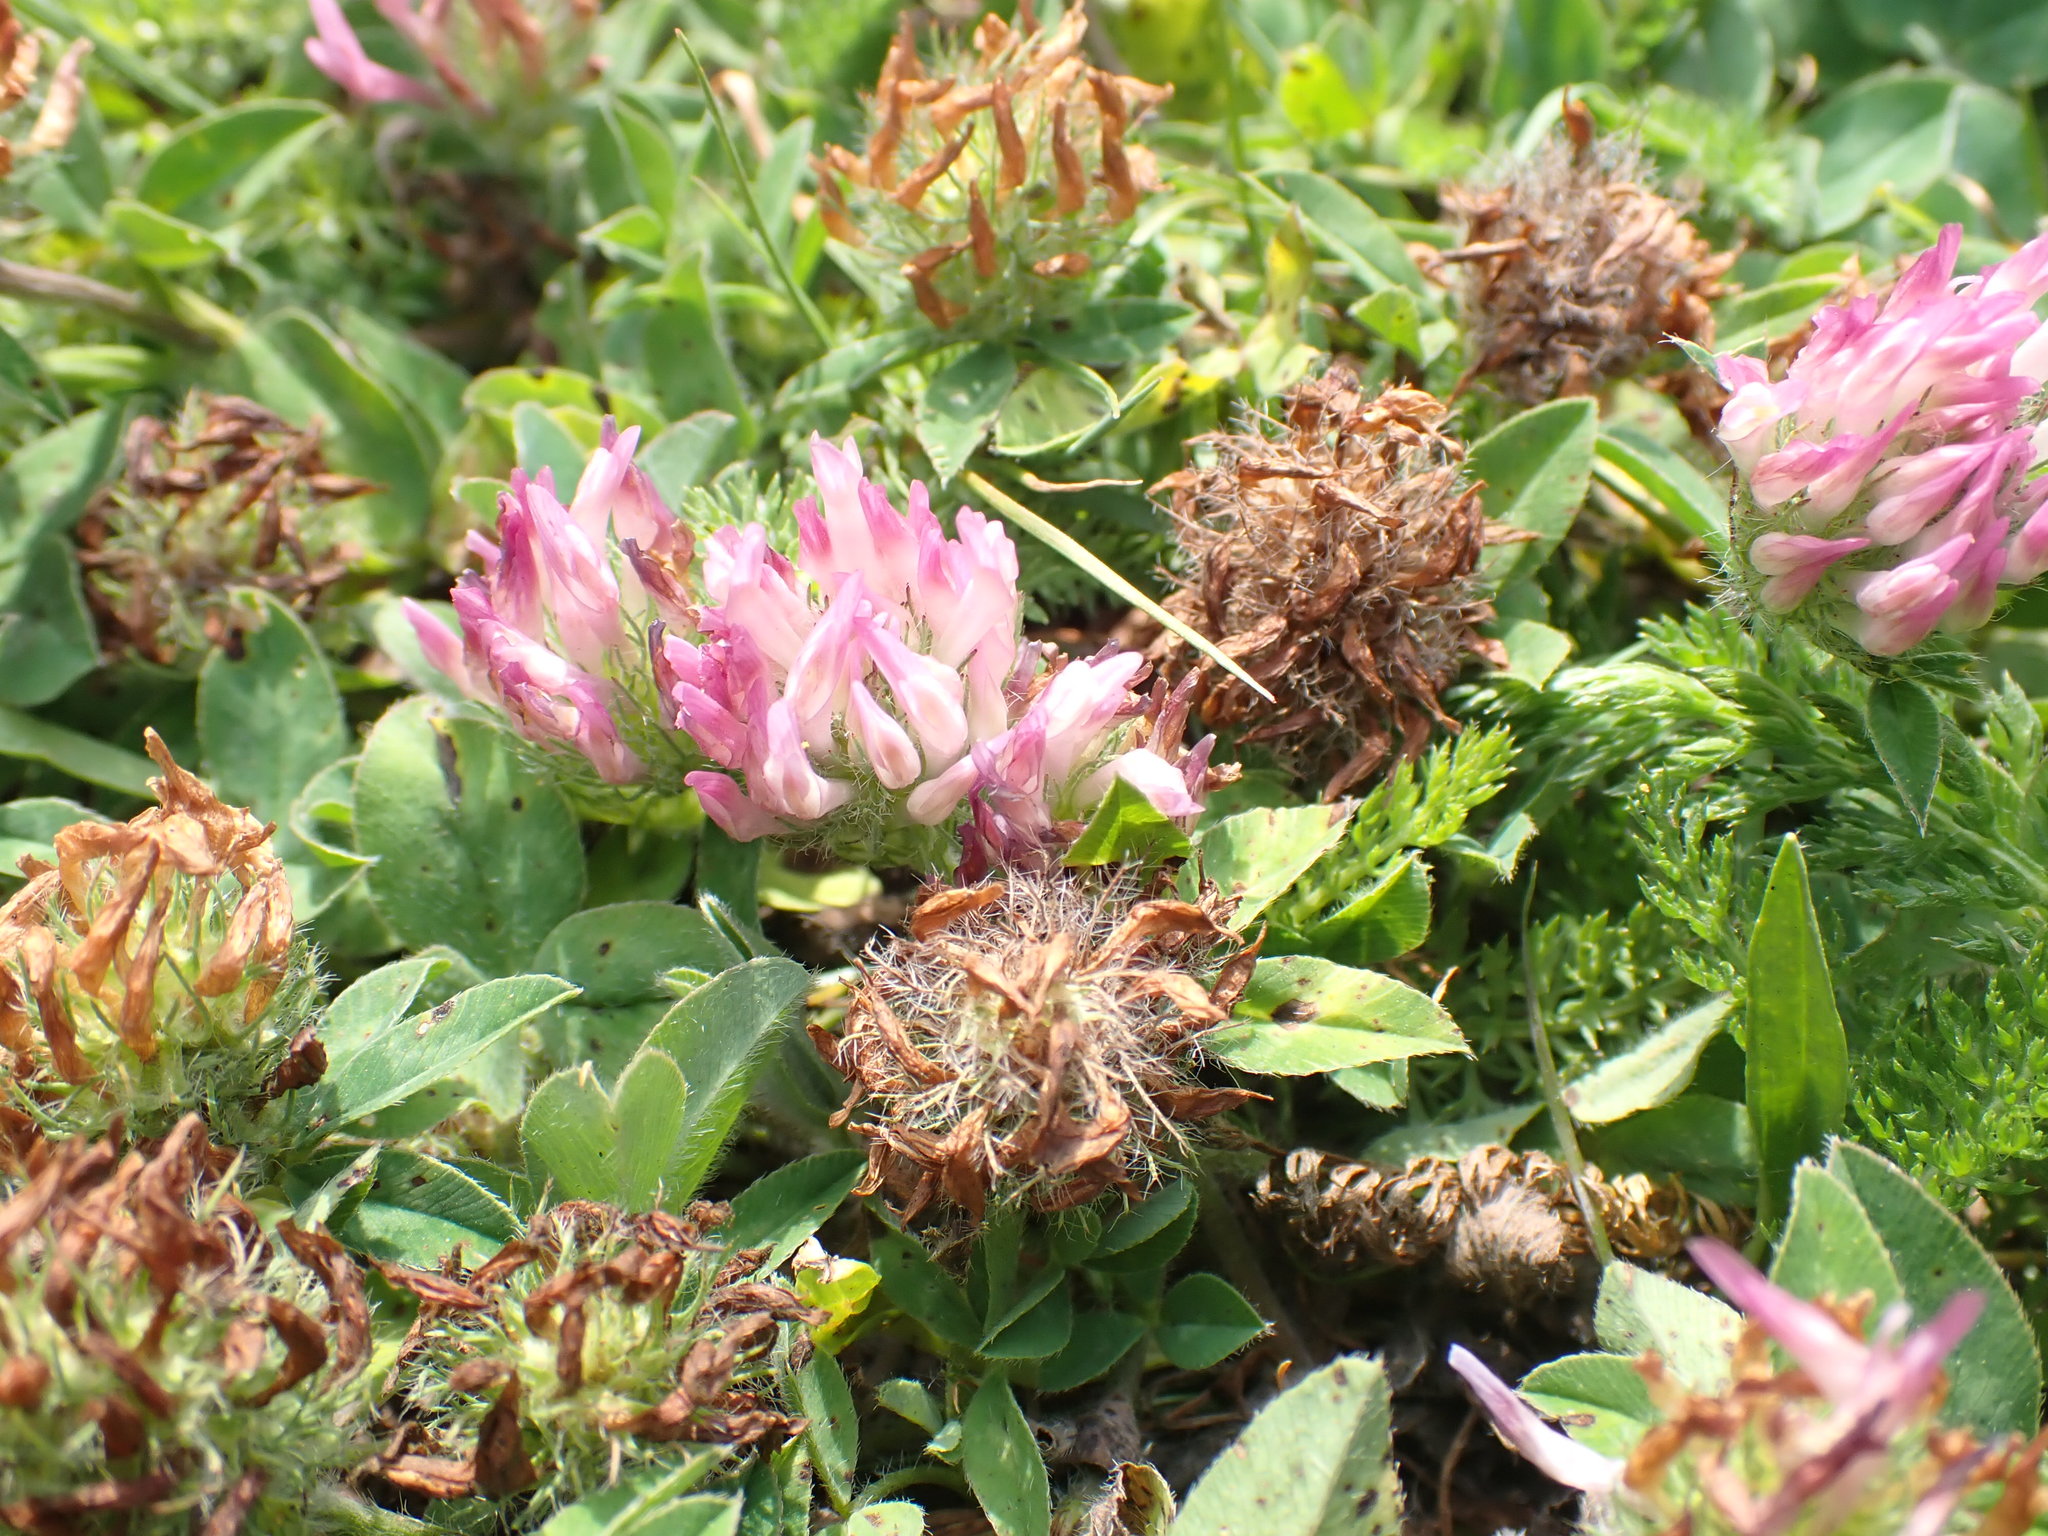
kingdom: Plantae
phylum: Tracheophyta
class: Magnoliopsida
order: Fabales
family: Fabaceae
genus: Trifolium
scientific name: Trifolium pratense
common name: Red clover
